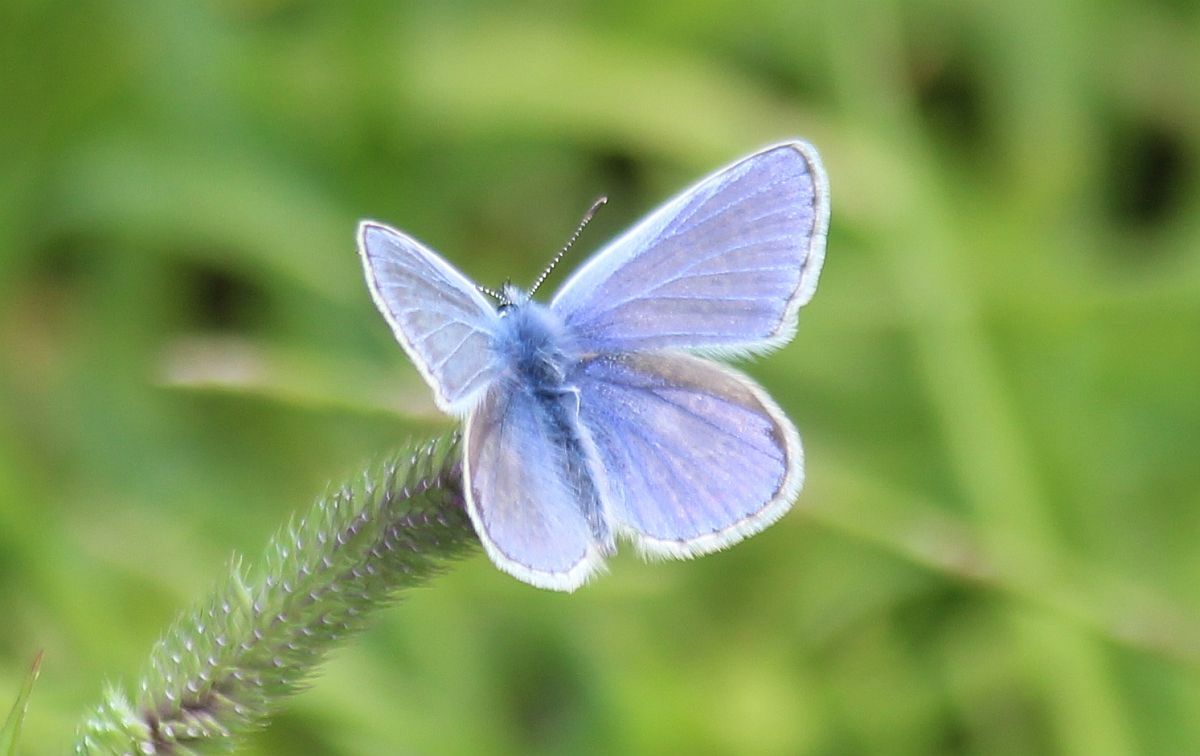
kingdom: Animalia
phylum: Arthropoda
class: Insecta
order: Lepidoptera
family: Lycaenidae
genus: Polyommatus
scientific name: Polyommatus icarus
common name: Common blue
